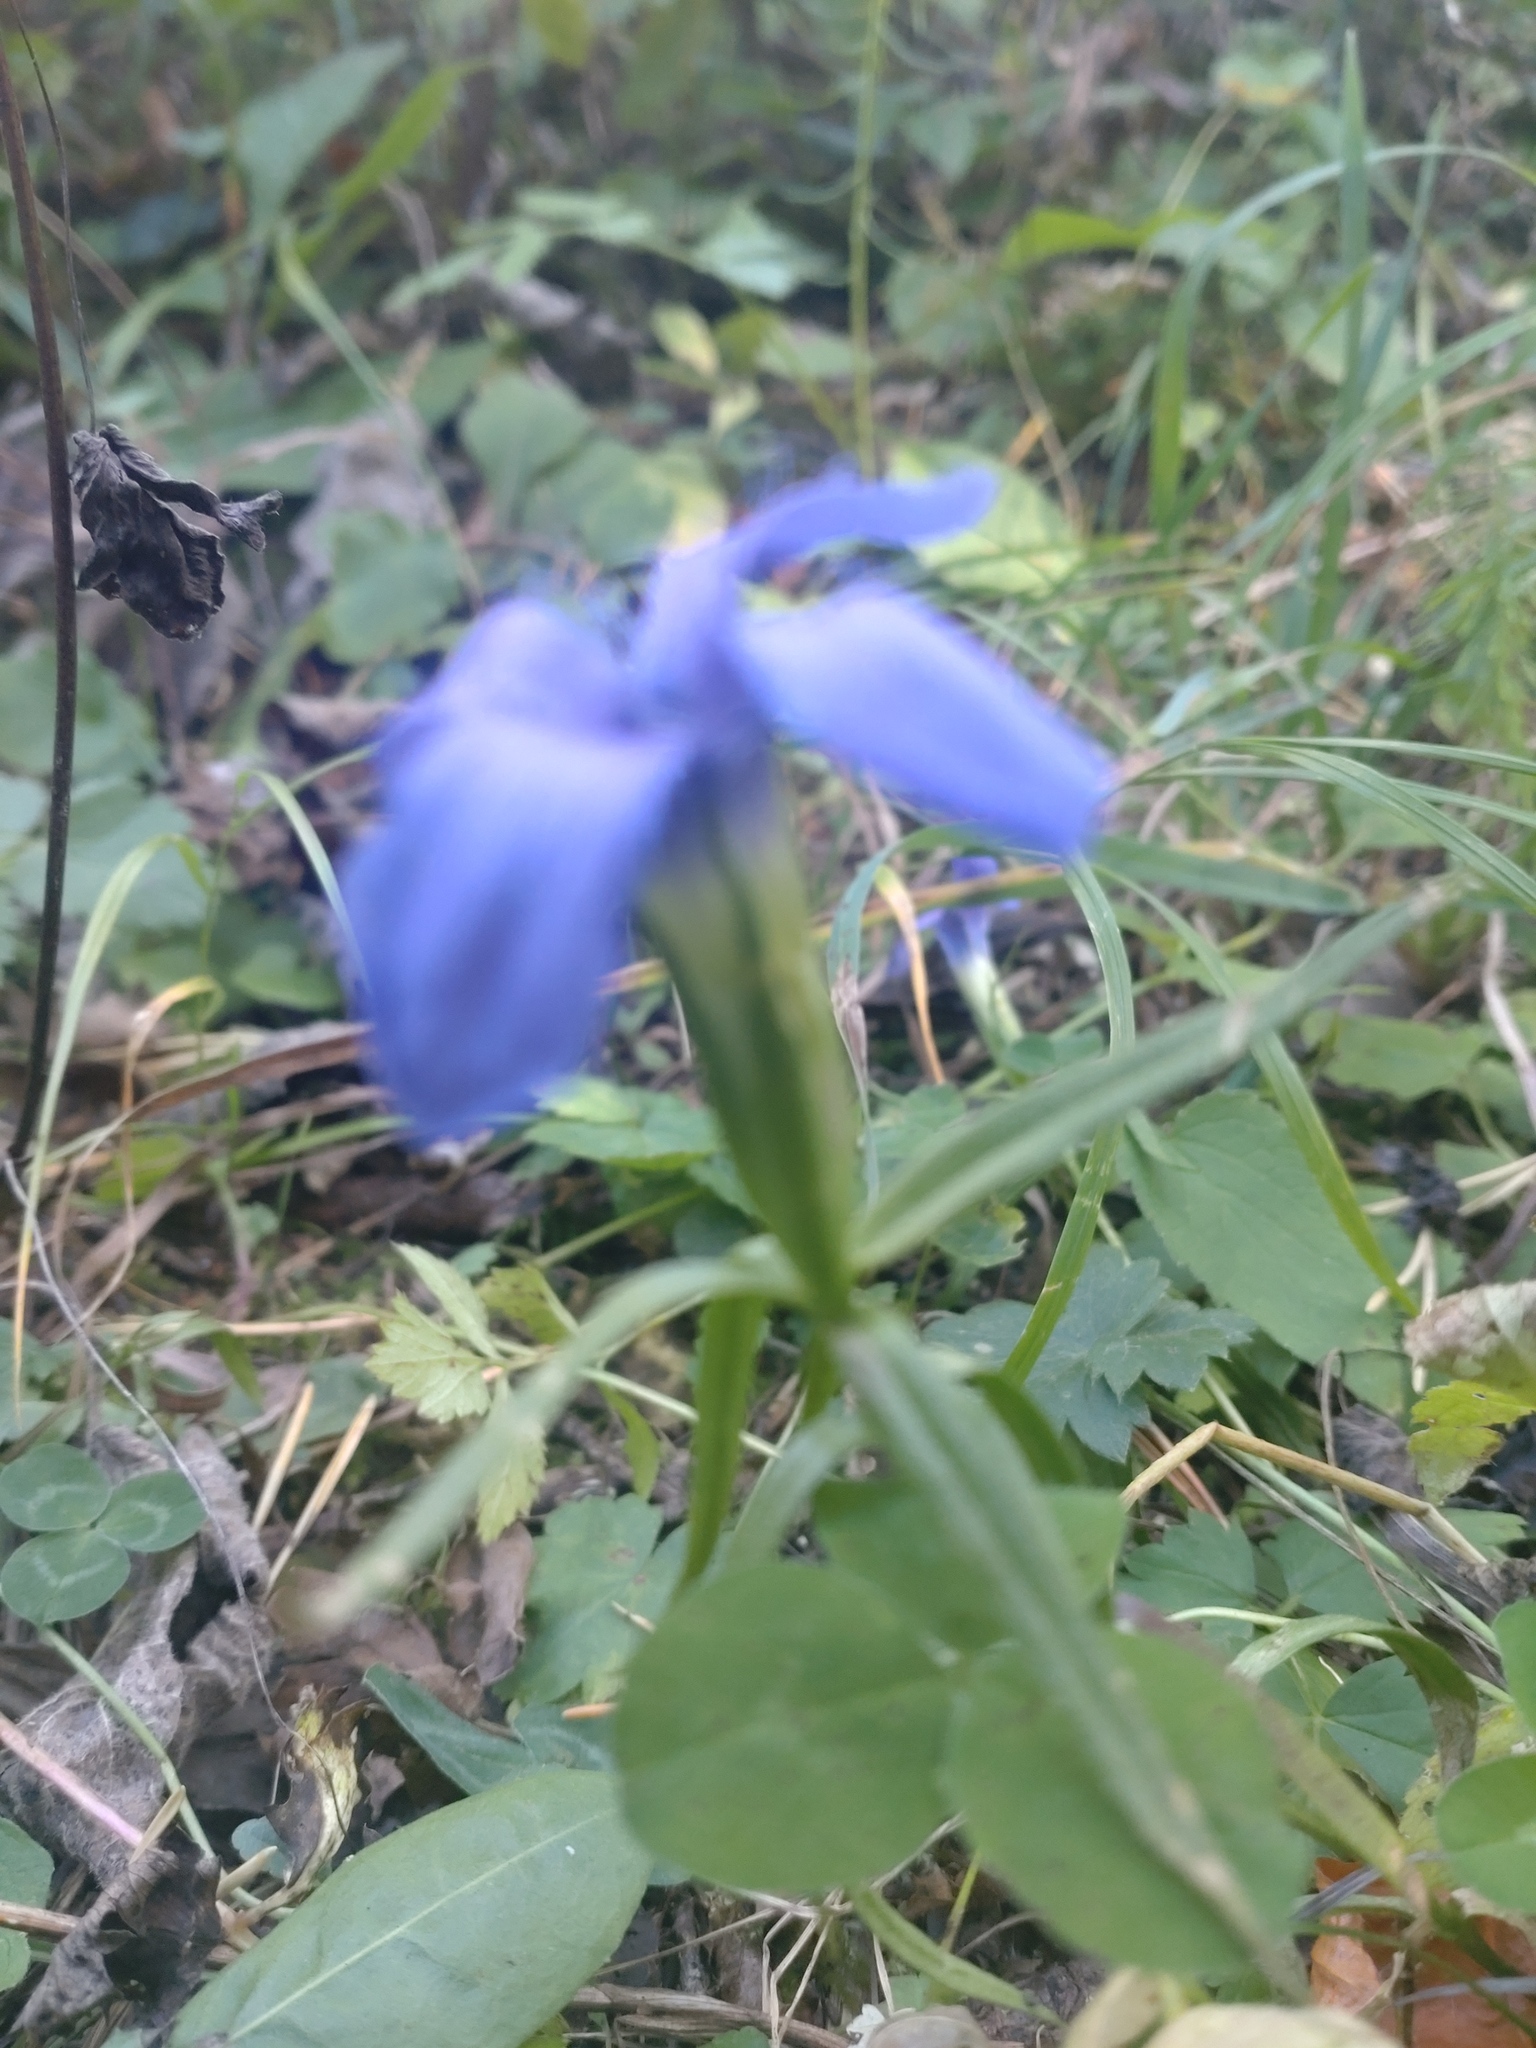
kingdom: Plantae
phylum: Tracheophyta
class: Magnoliopsida
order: Gentianales
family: Gentianaceae
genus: Gentianopsis
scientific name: Gentianopsis ciliata
